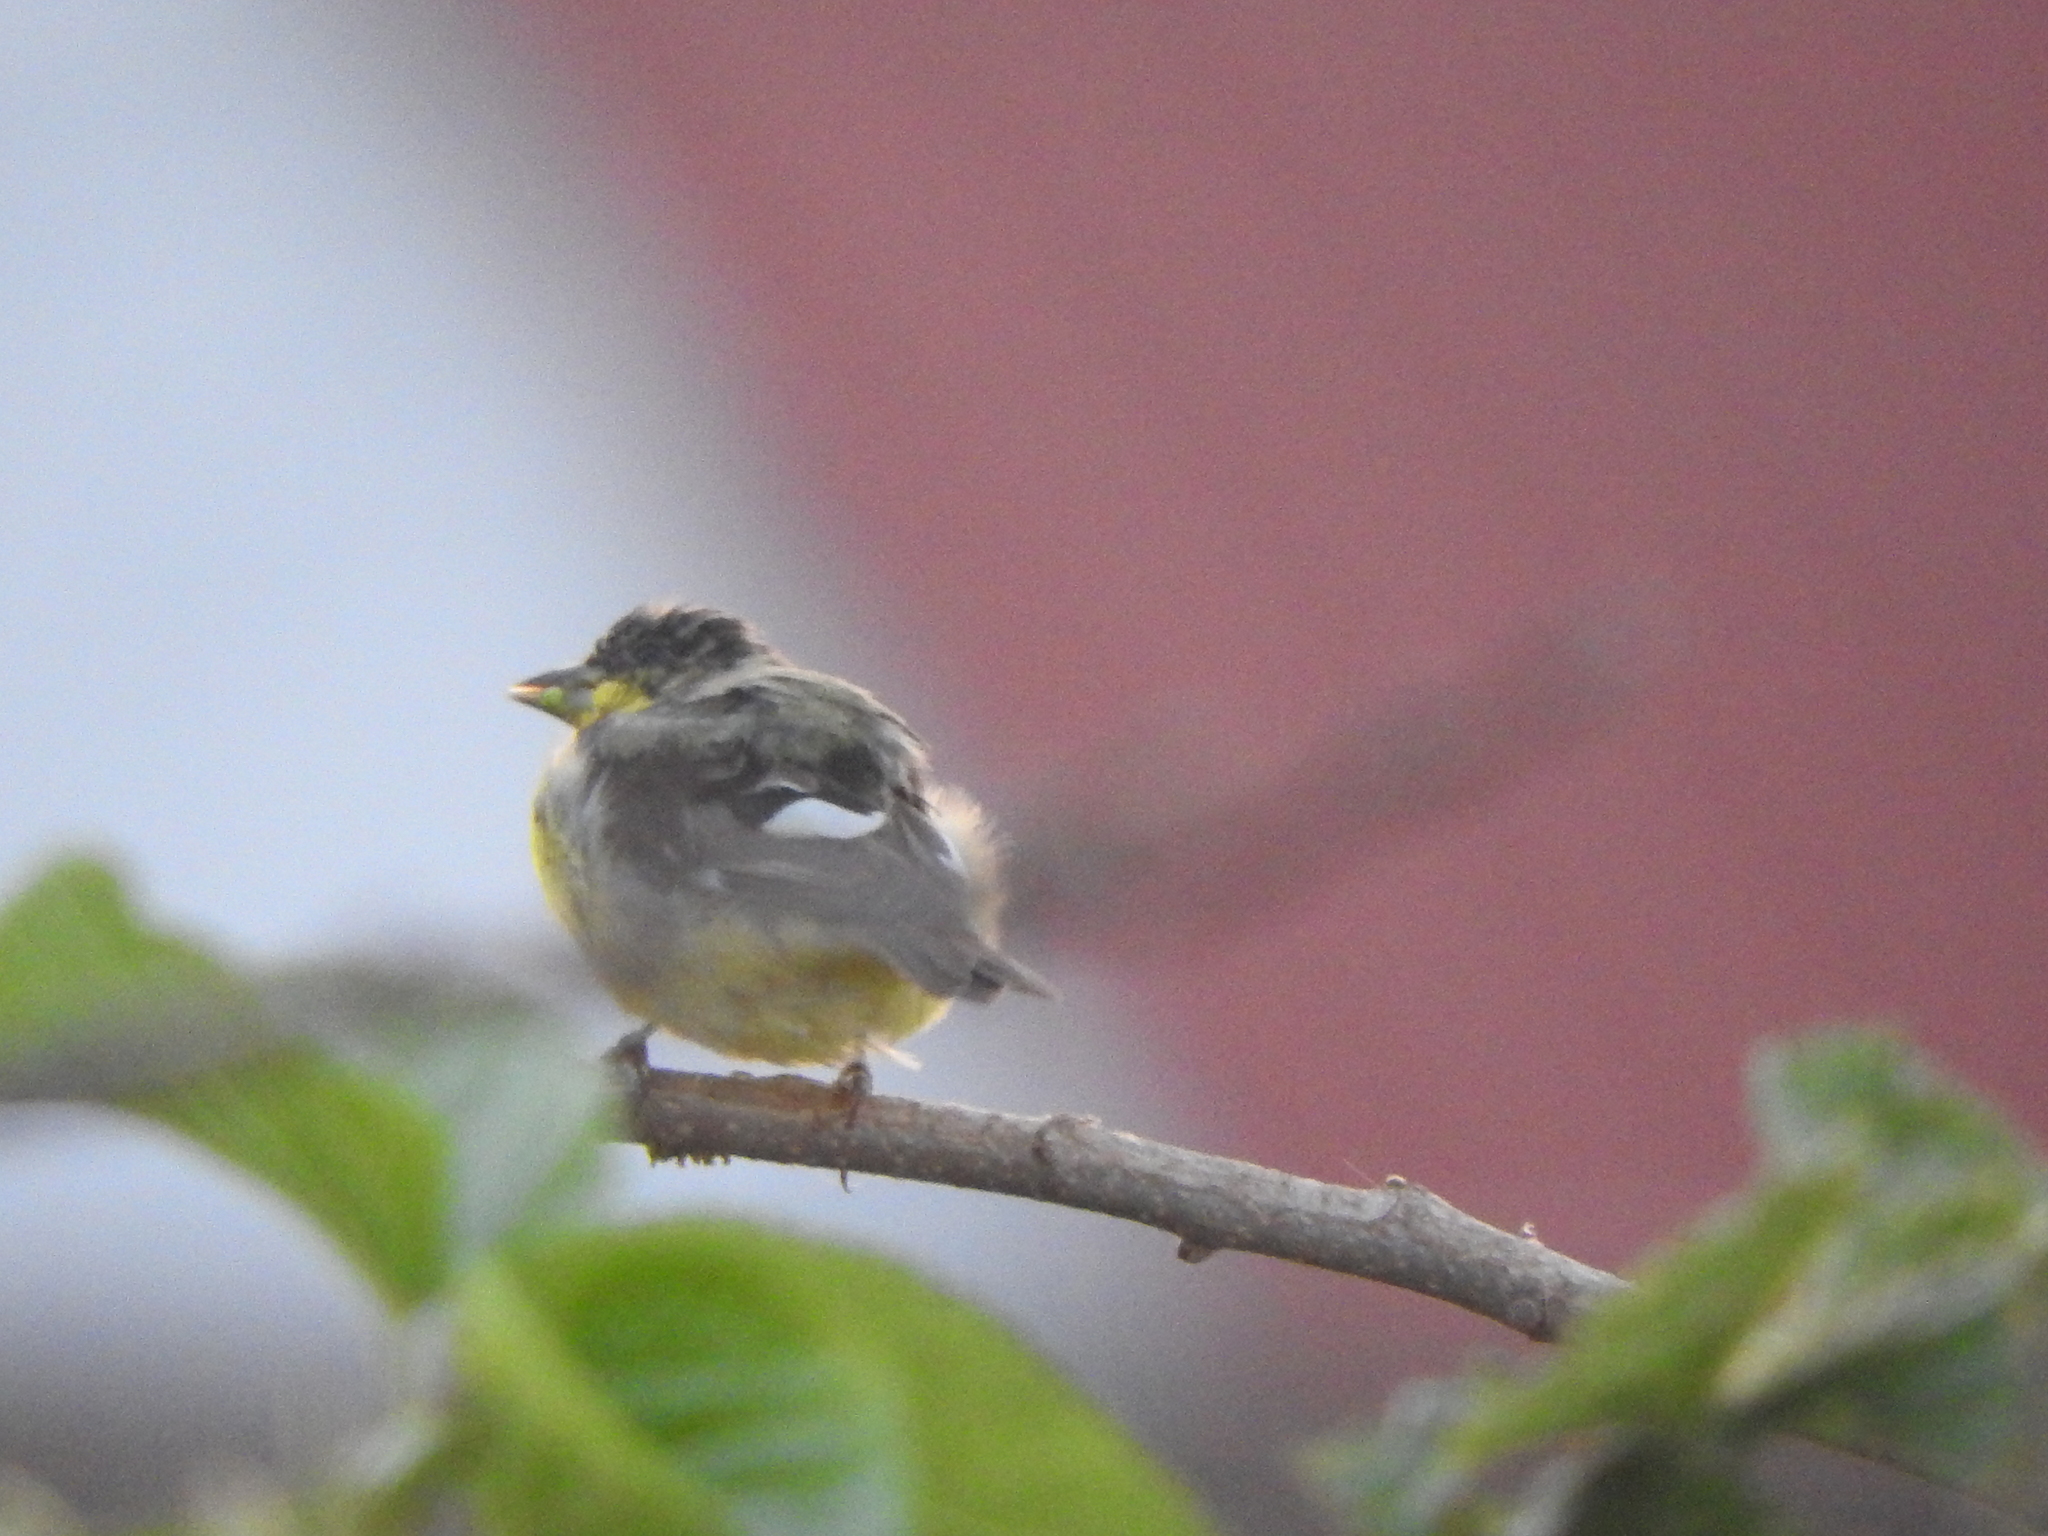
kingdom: Animalia
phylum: Chordata
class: Aves
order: Passeriformes
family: Fringillidae
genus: Spinus
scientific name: Spinus psaltria
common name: Lesser goldfinch
